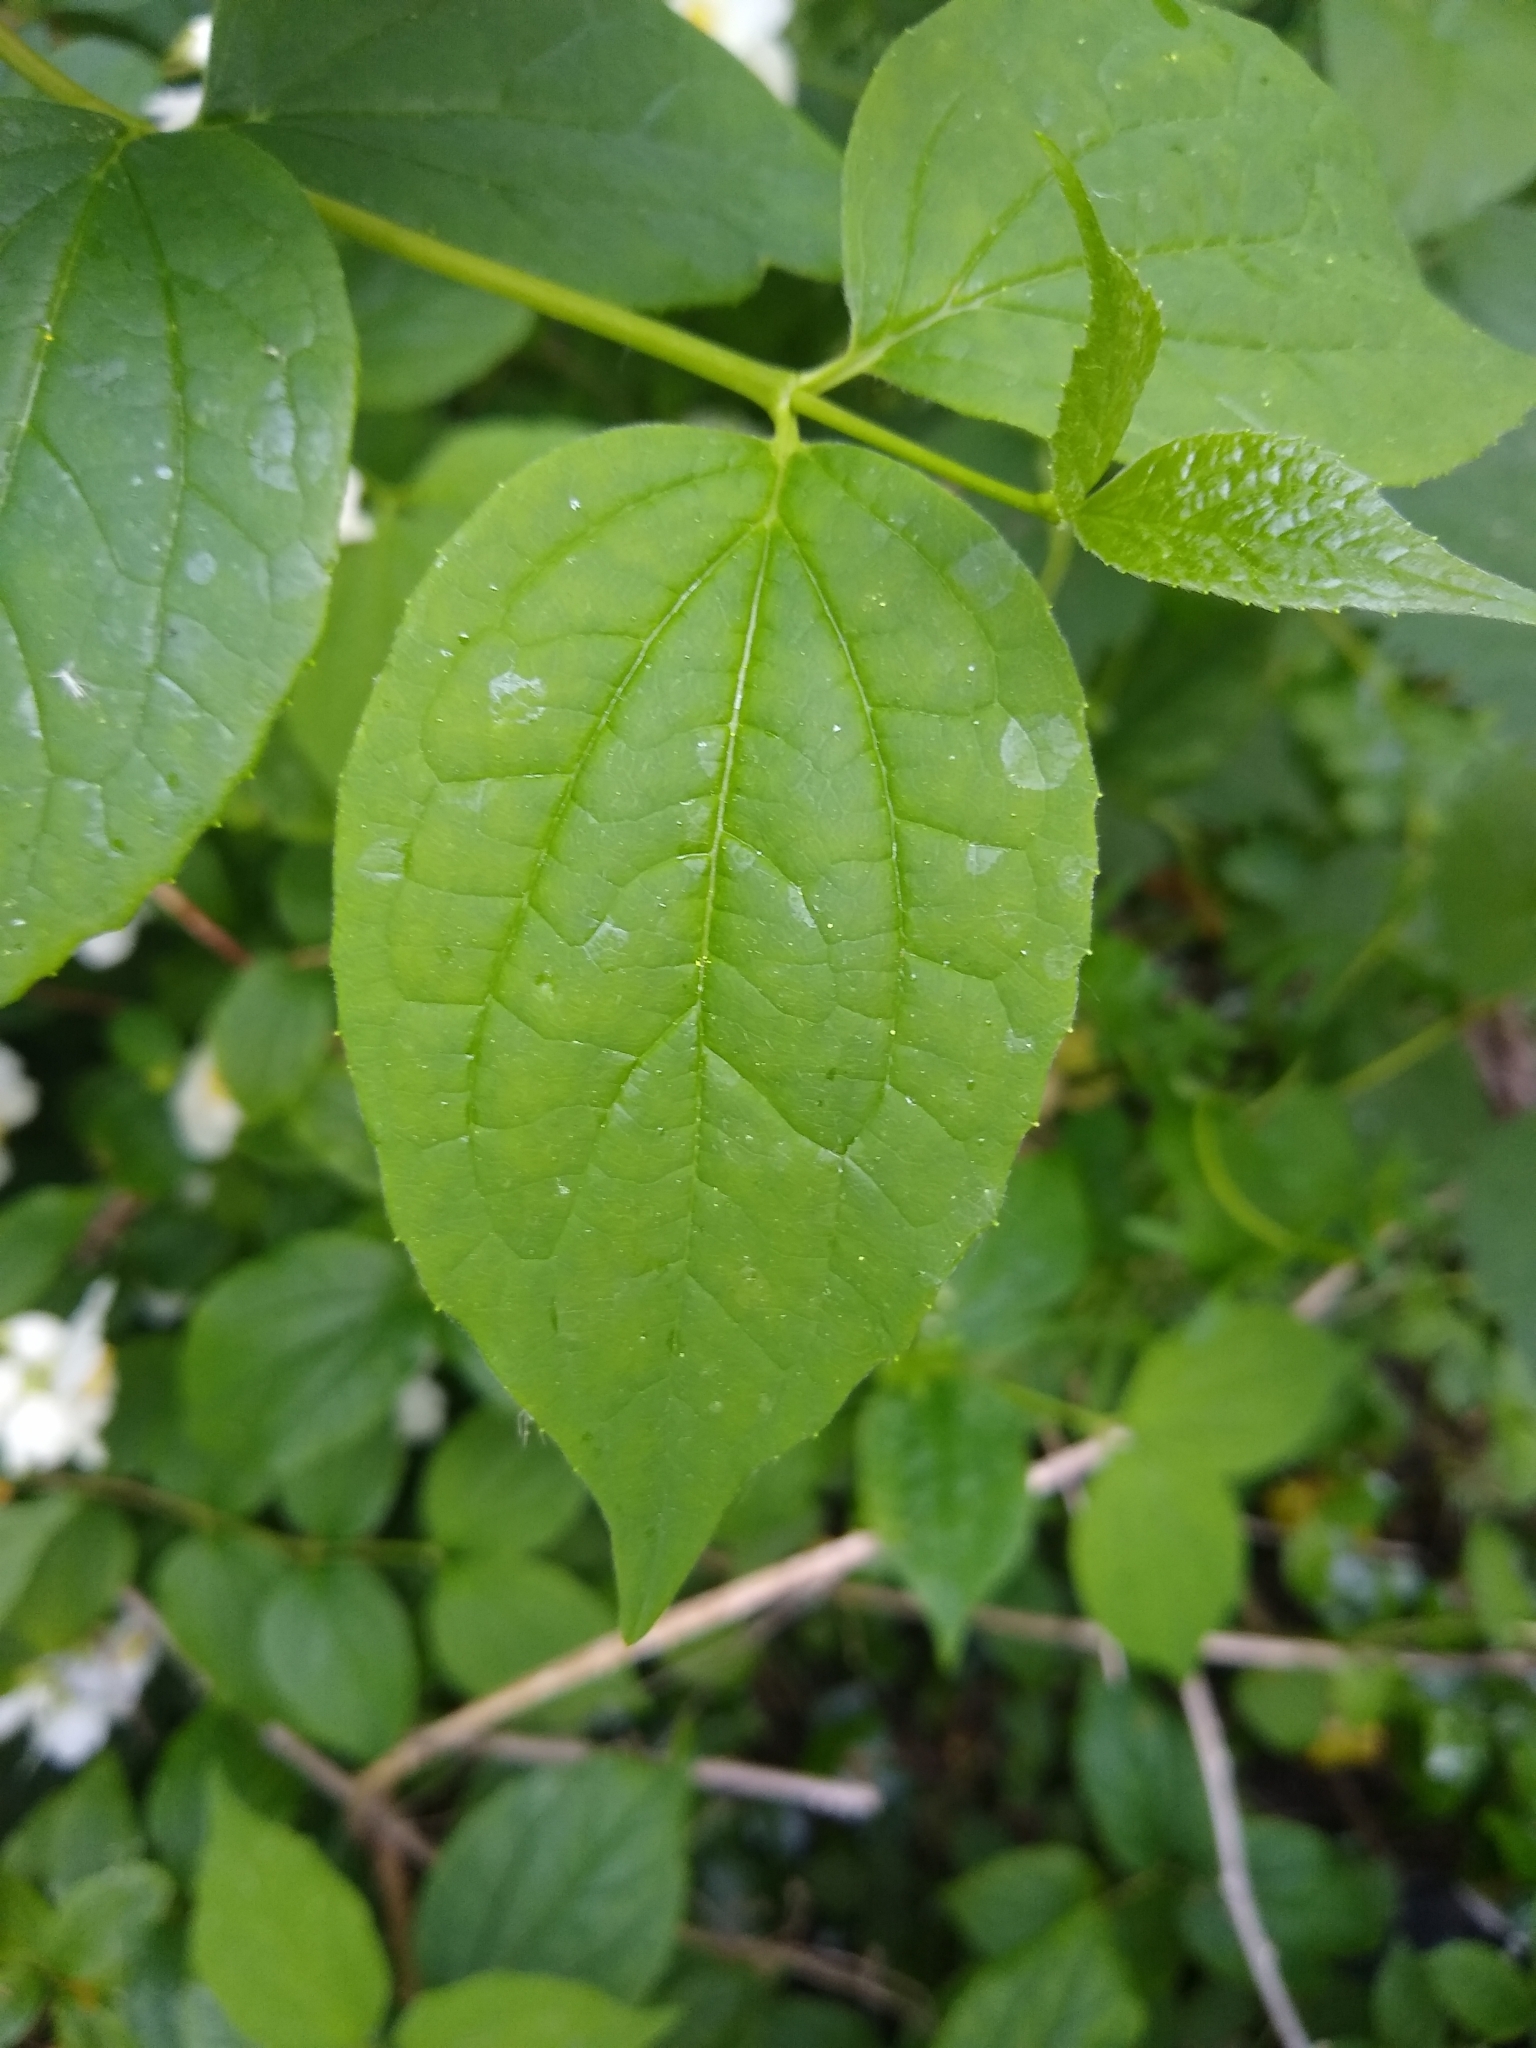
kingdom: Plantae
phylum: Tracheophyta
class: Magnoliopsida
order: Cornales
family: Hydrangeaceae
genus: Philadelphus
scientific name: Philadelphus coronarius
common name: Mock orange
